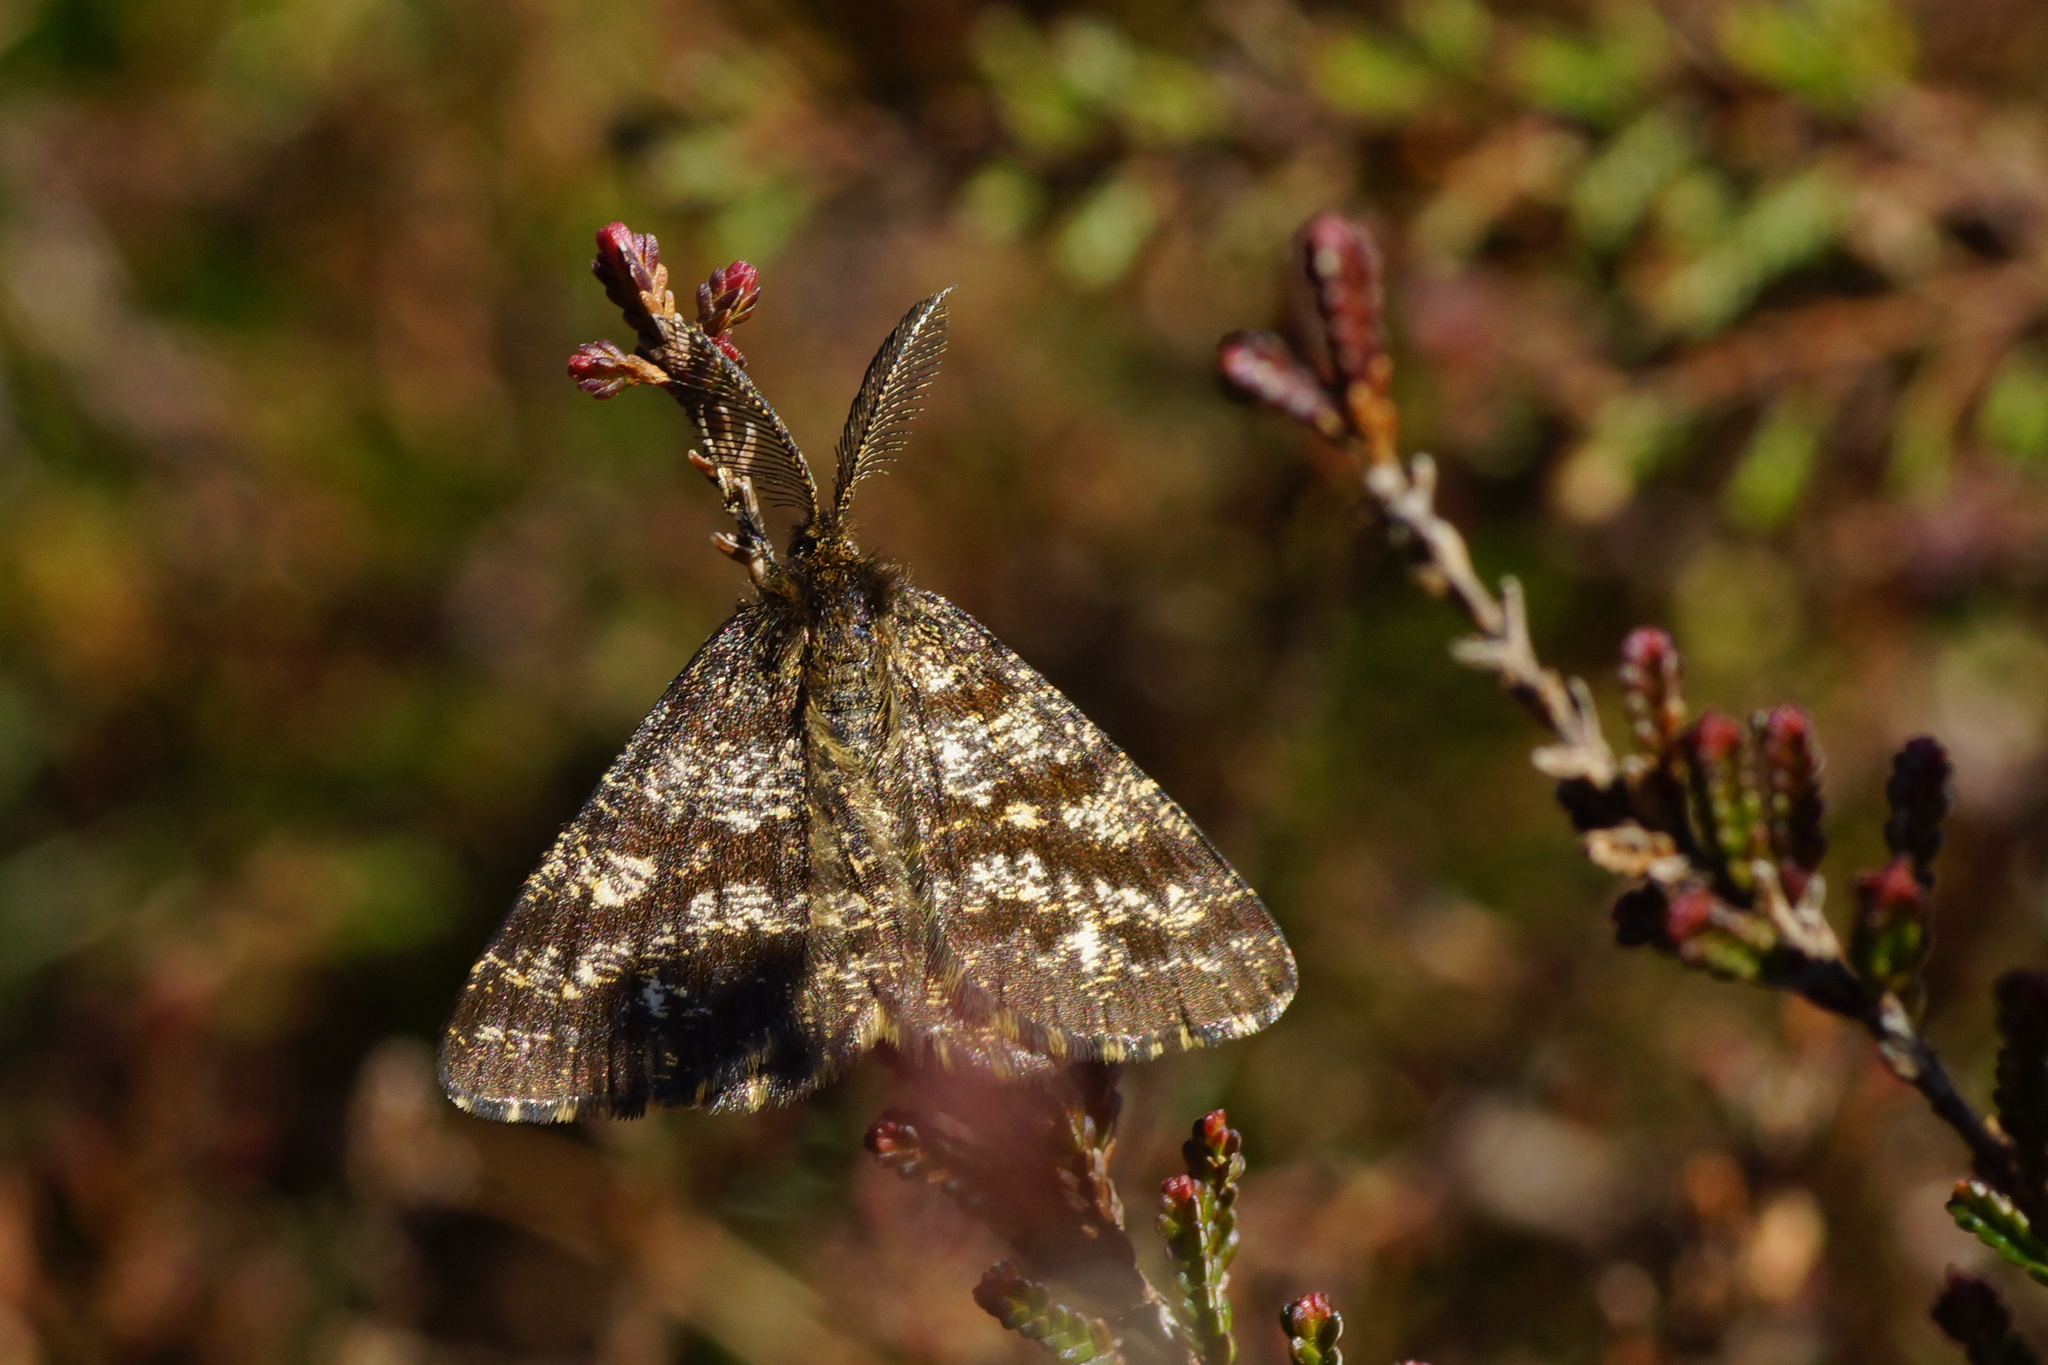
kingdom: Animalia
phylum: Arthropoda
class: Insecta
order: Lepidoptera
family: Geometridae
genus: Ematurga
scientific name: Ematurga atomaria
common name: Common heath
